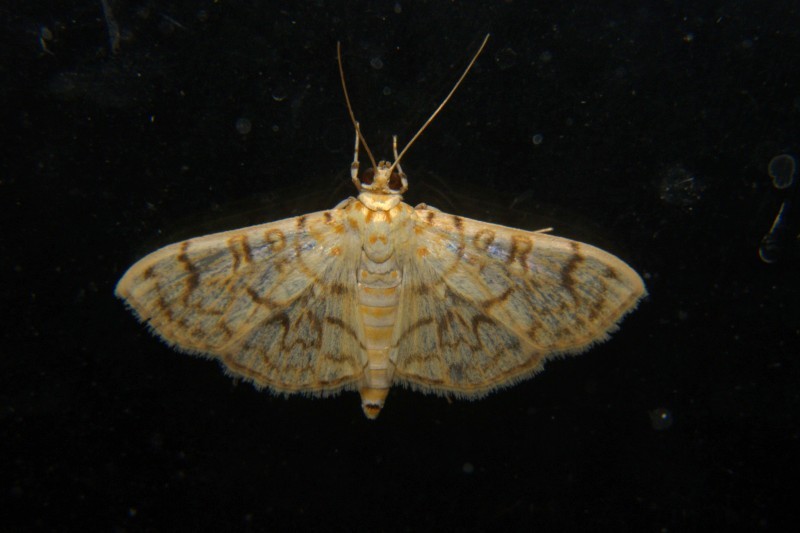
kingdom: Animalia
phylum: Arthropoda
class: Insecta
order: Lepidoptera
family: Crambidae
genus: Haritalodes
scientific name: Haritalodes derogata
